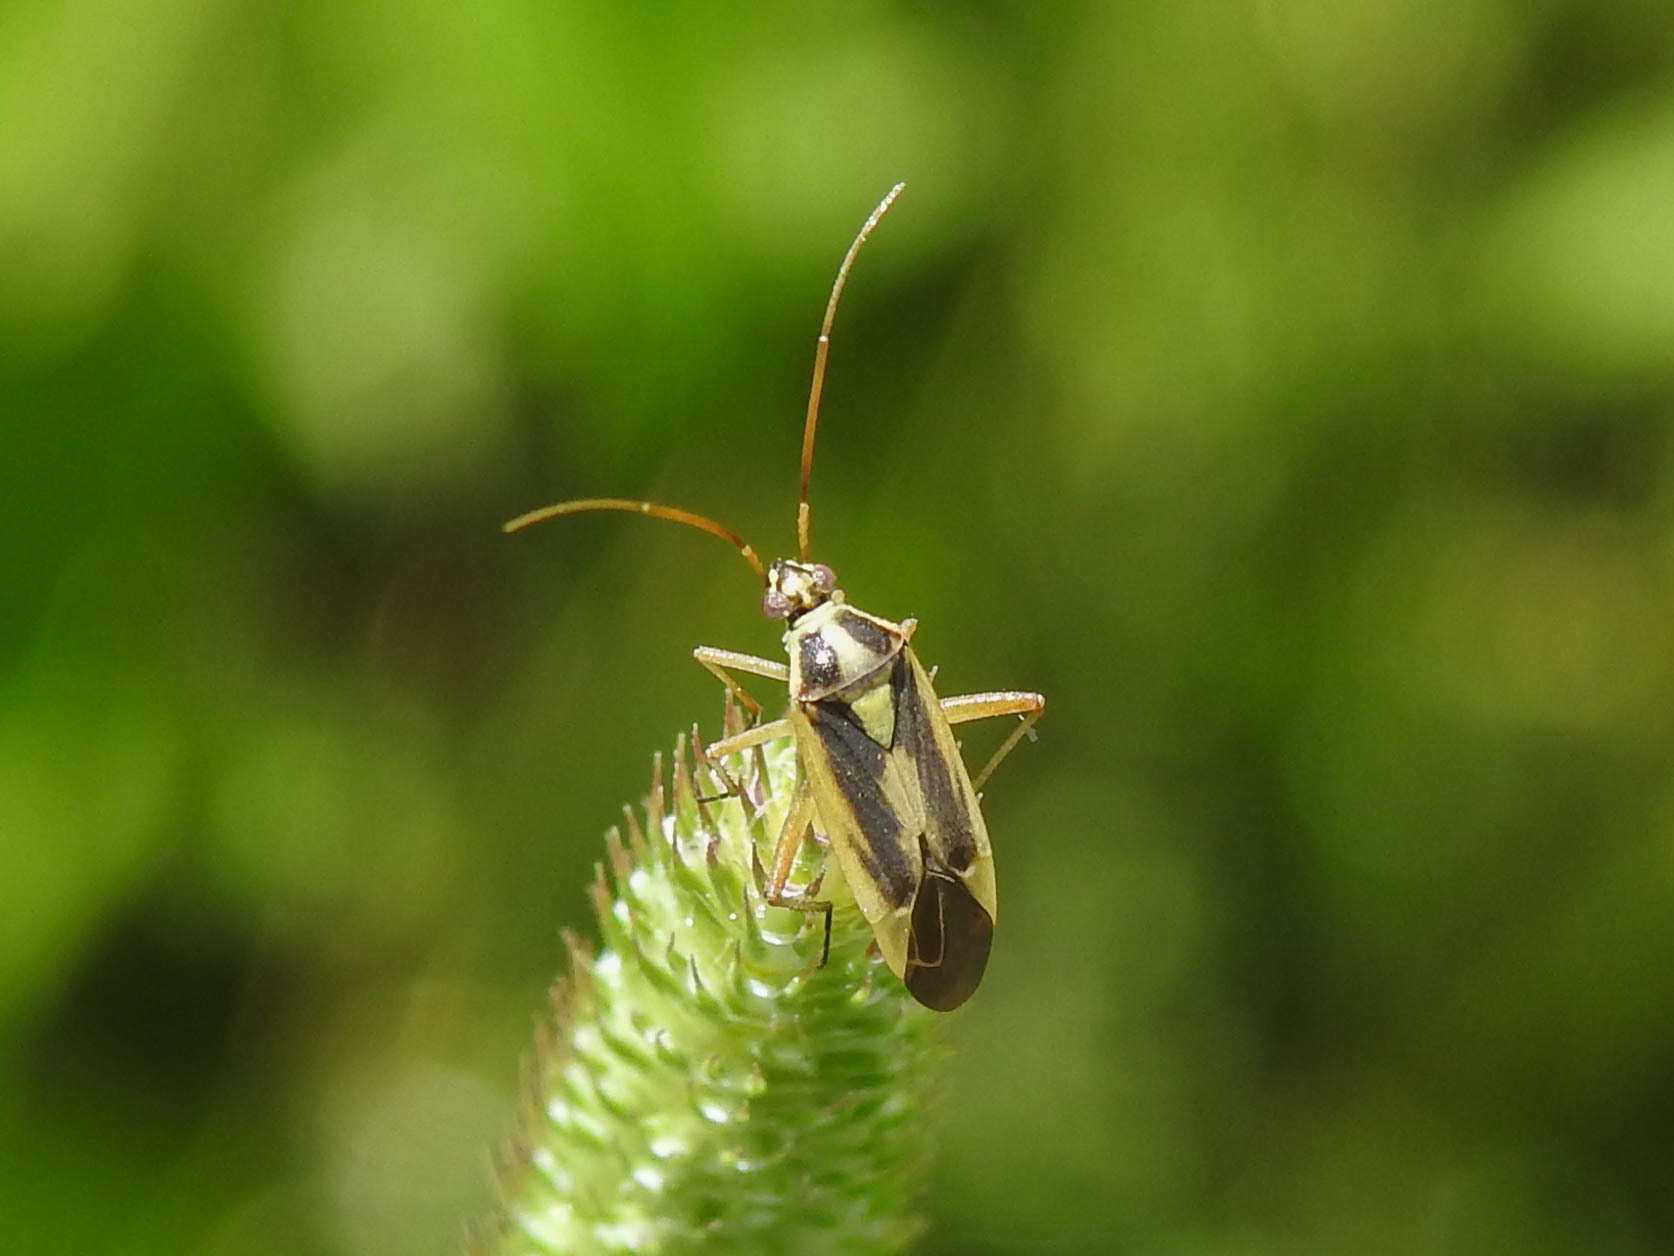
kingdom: Animalia
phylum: Arthropoda
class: Insecta
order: Hemiptera
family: Miridae
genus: Stenotus
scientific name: Stenotus binotatus
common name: Plant bug
